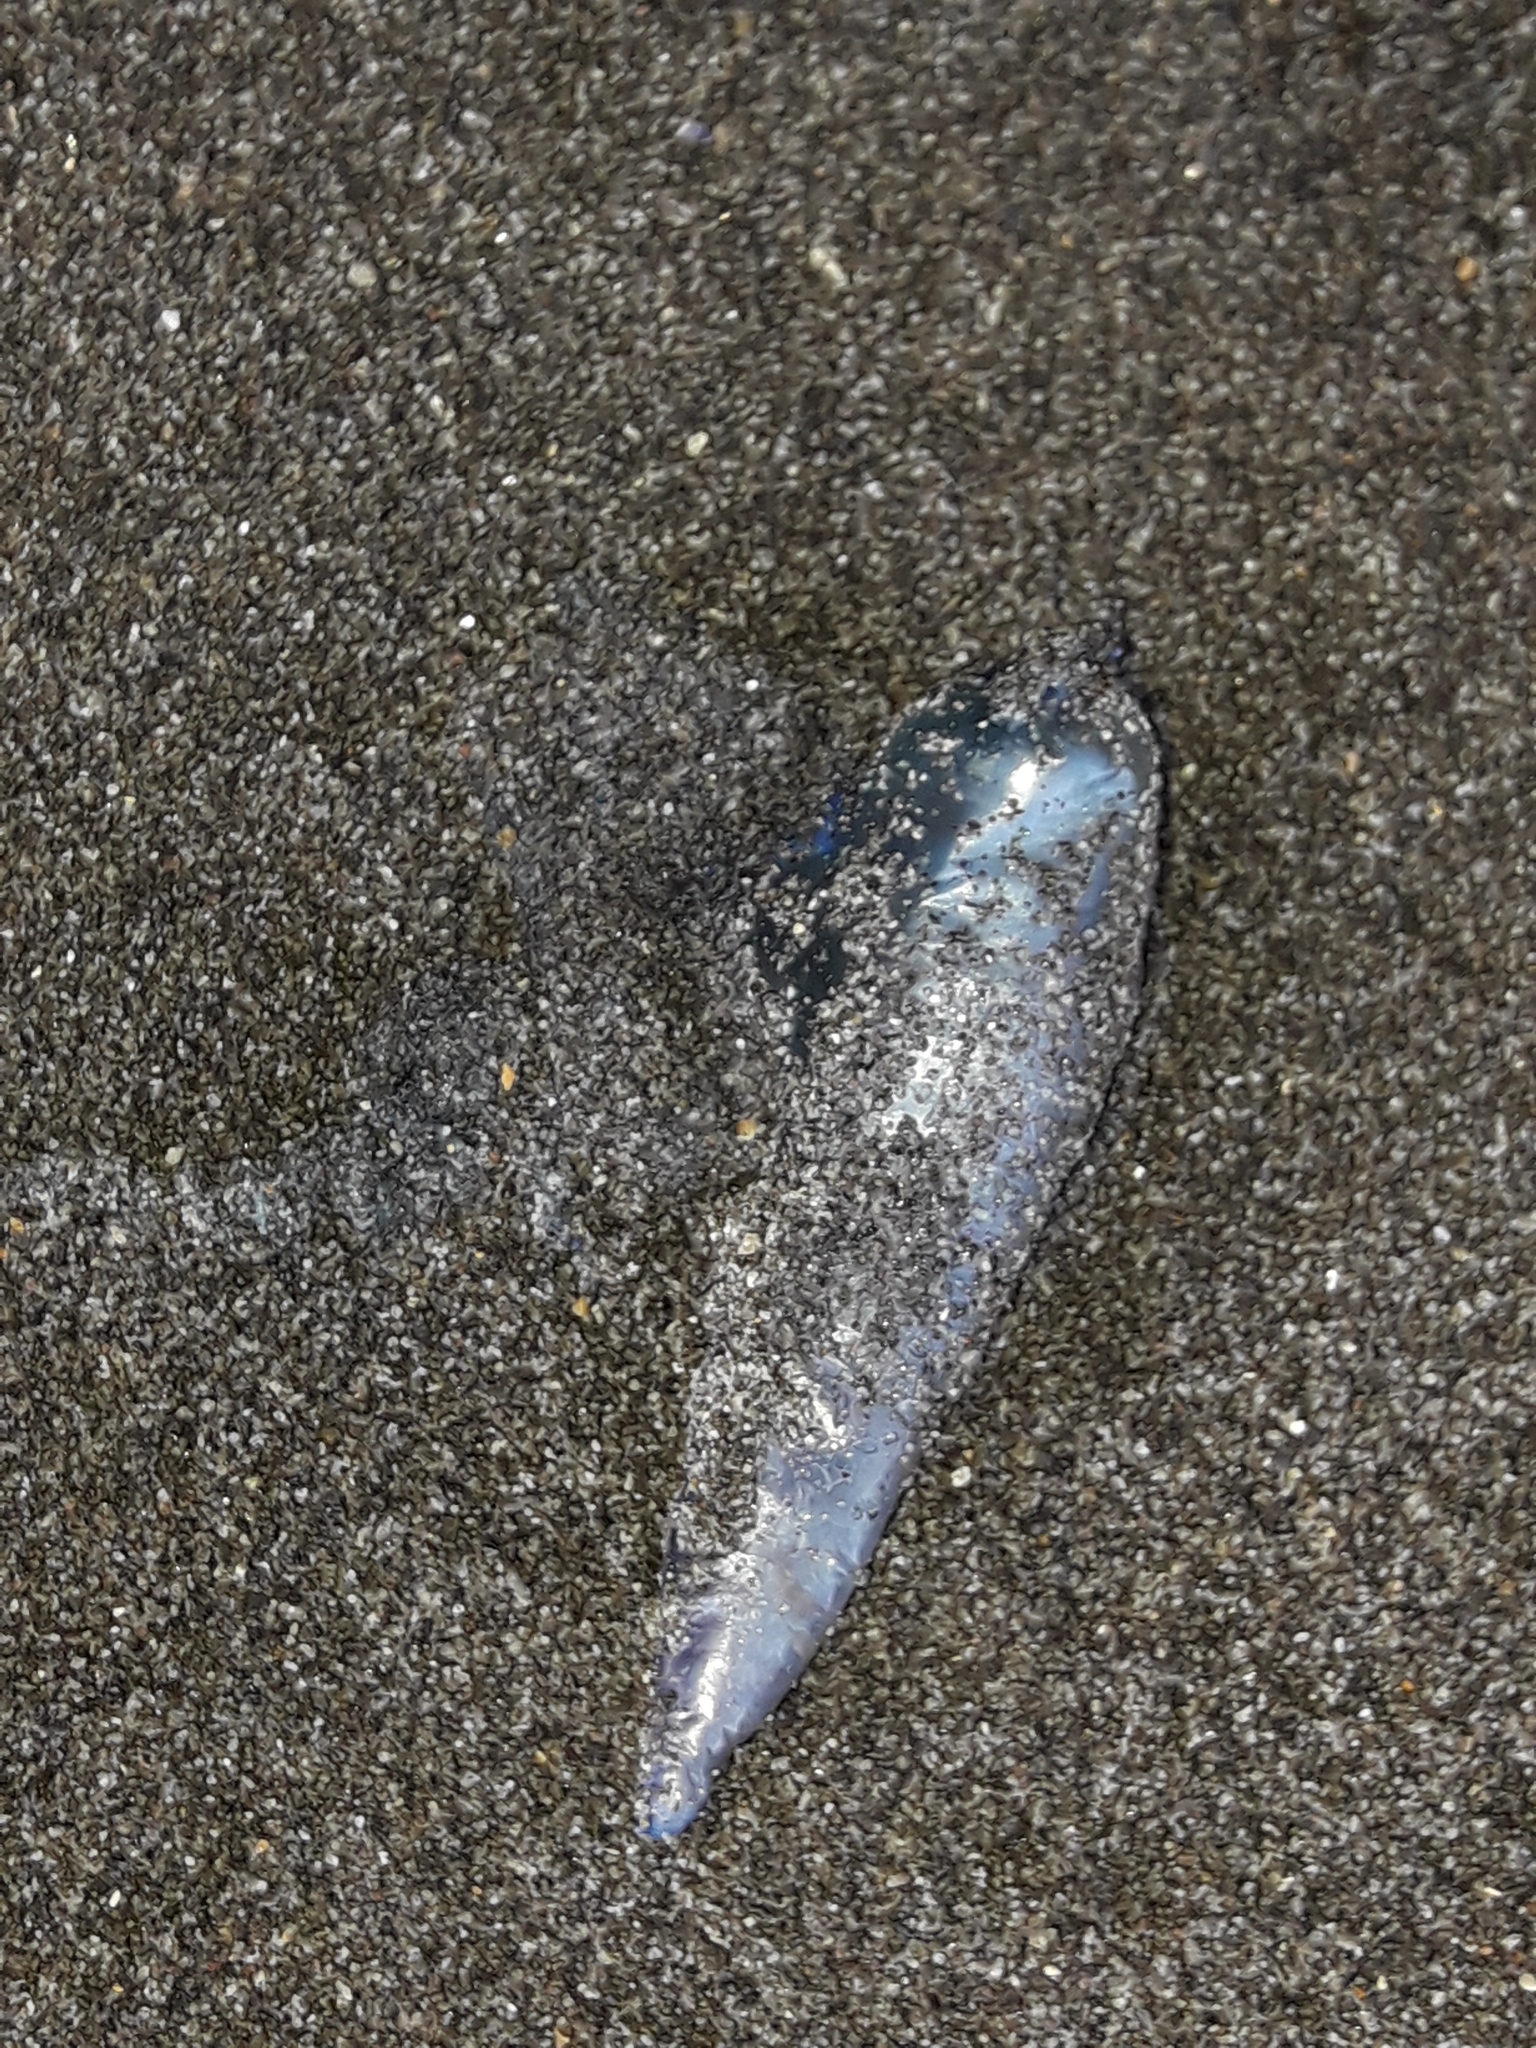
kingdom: Animalia
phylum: Cnidaria
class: Hydrozoa
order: Siphonophorae
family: Physaliidae
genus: Physalia
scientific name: Physalia physalis
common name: Portuguese man-of-war
